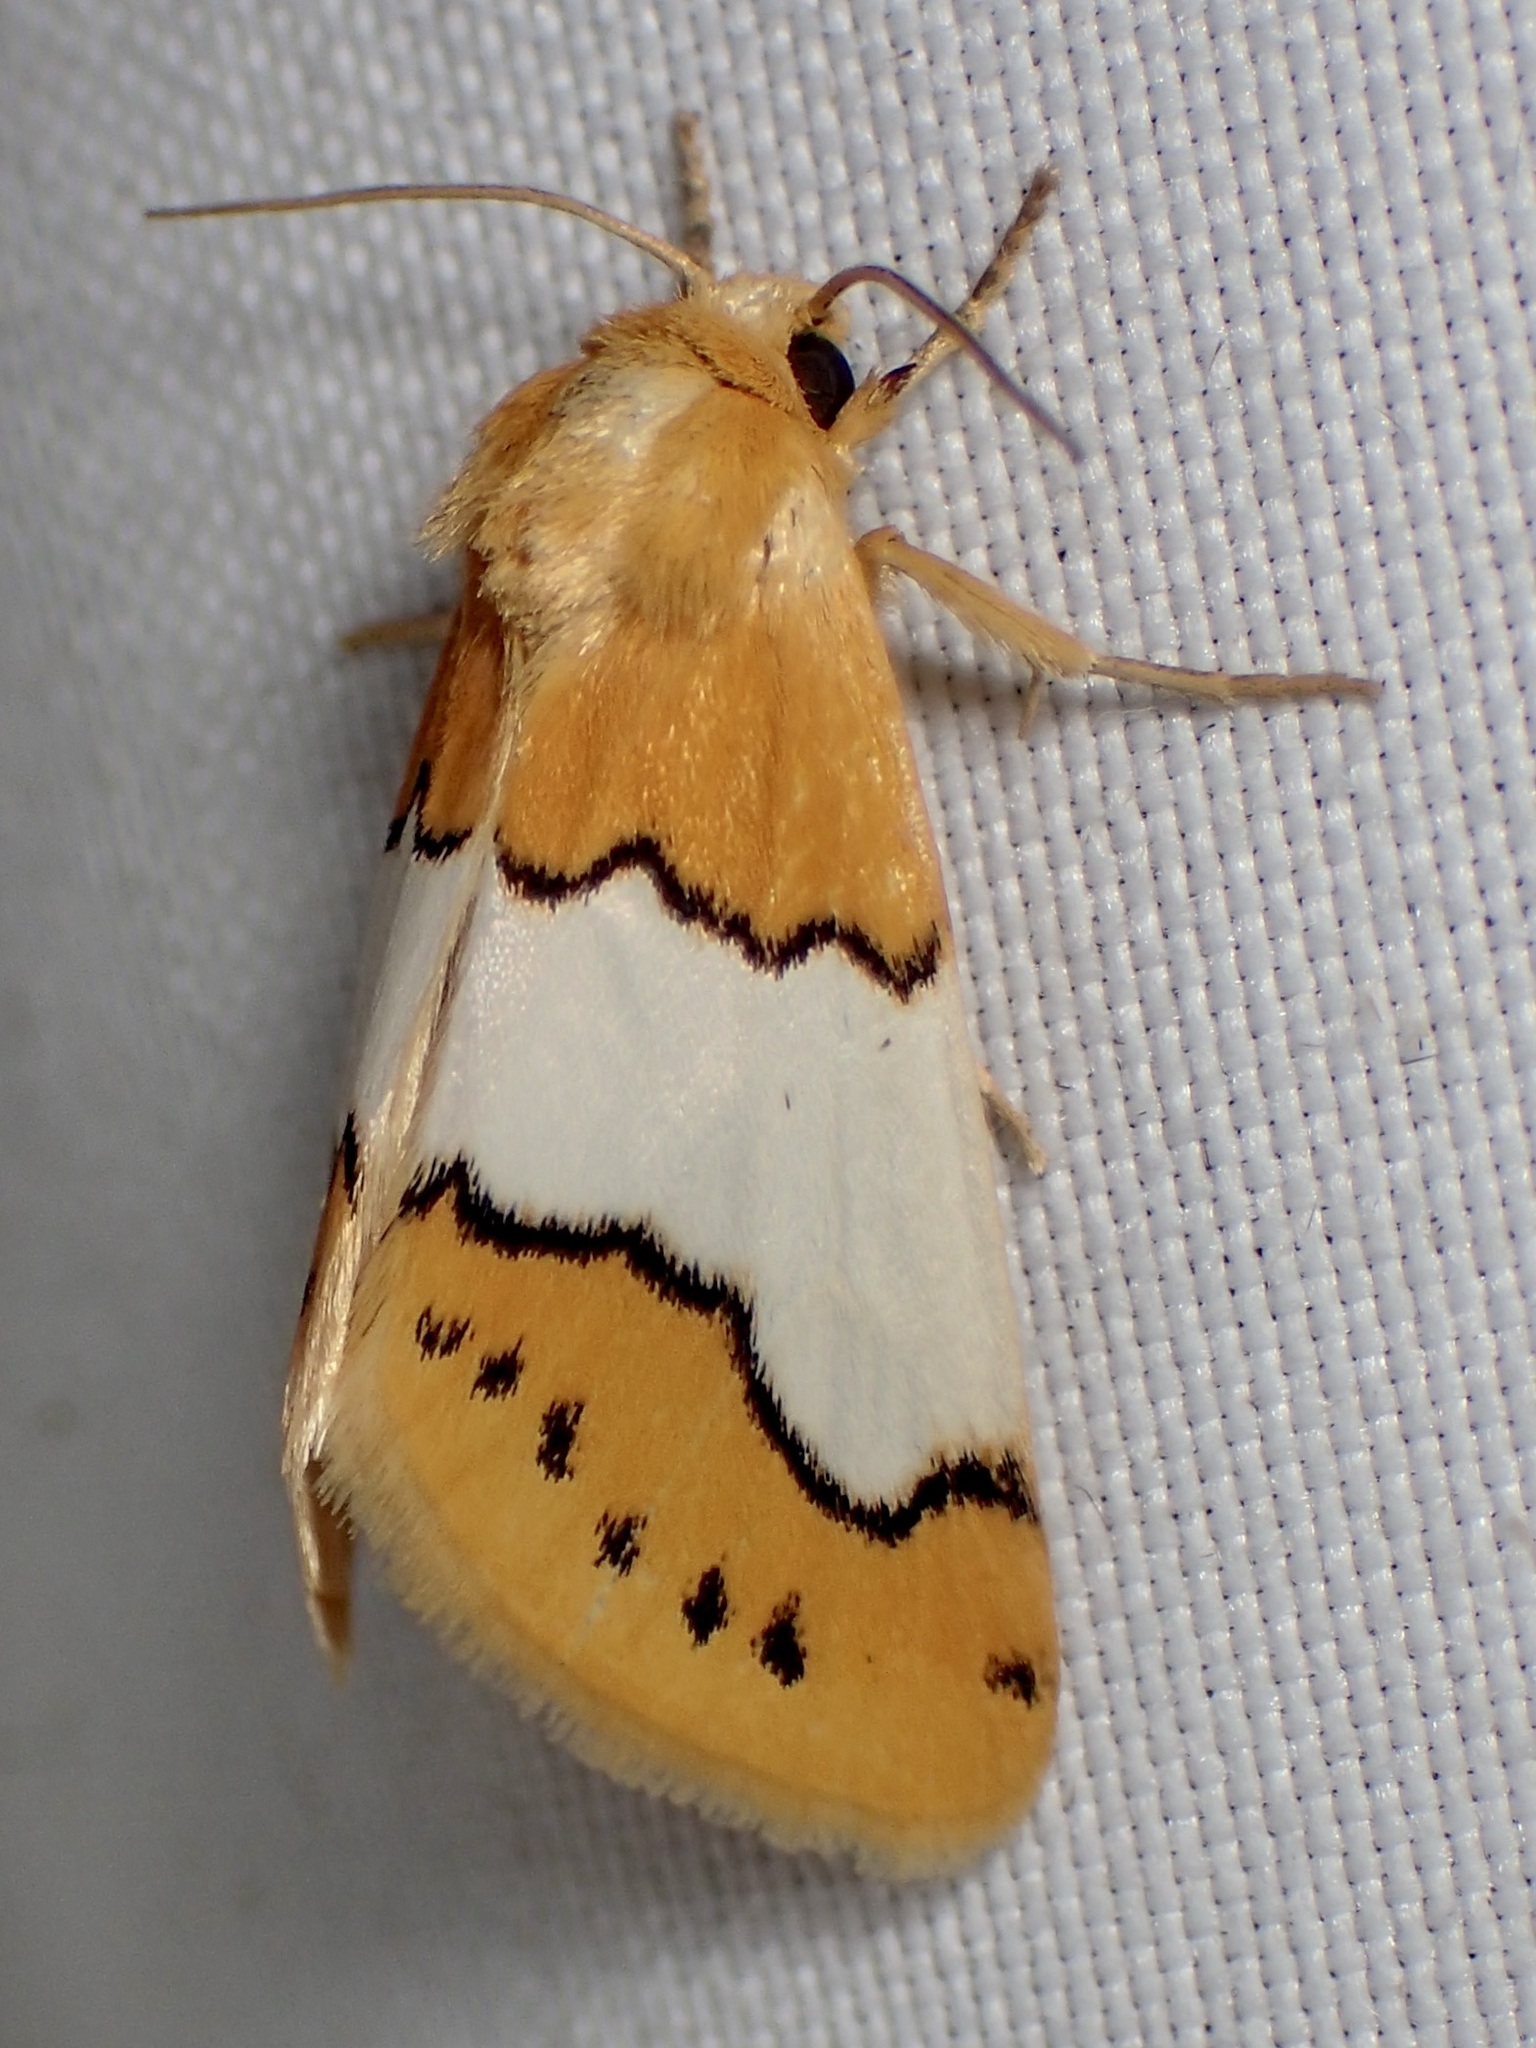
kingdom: Animalia
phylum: Arthropoda
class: Insecta
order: Lepidoptera
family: Noctuidae
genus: Lineostriastiria
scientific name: Lineostriastiria hachita
